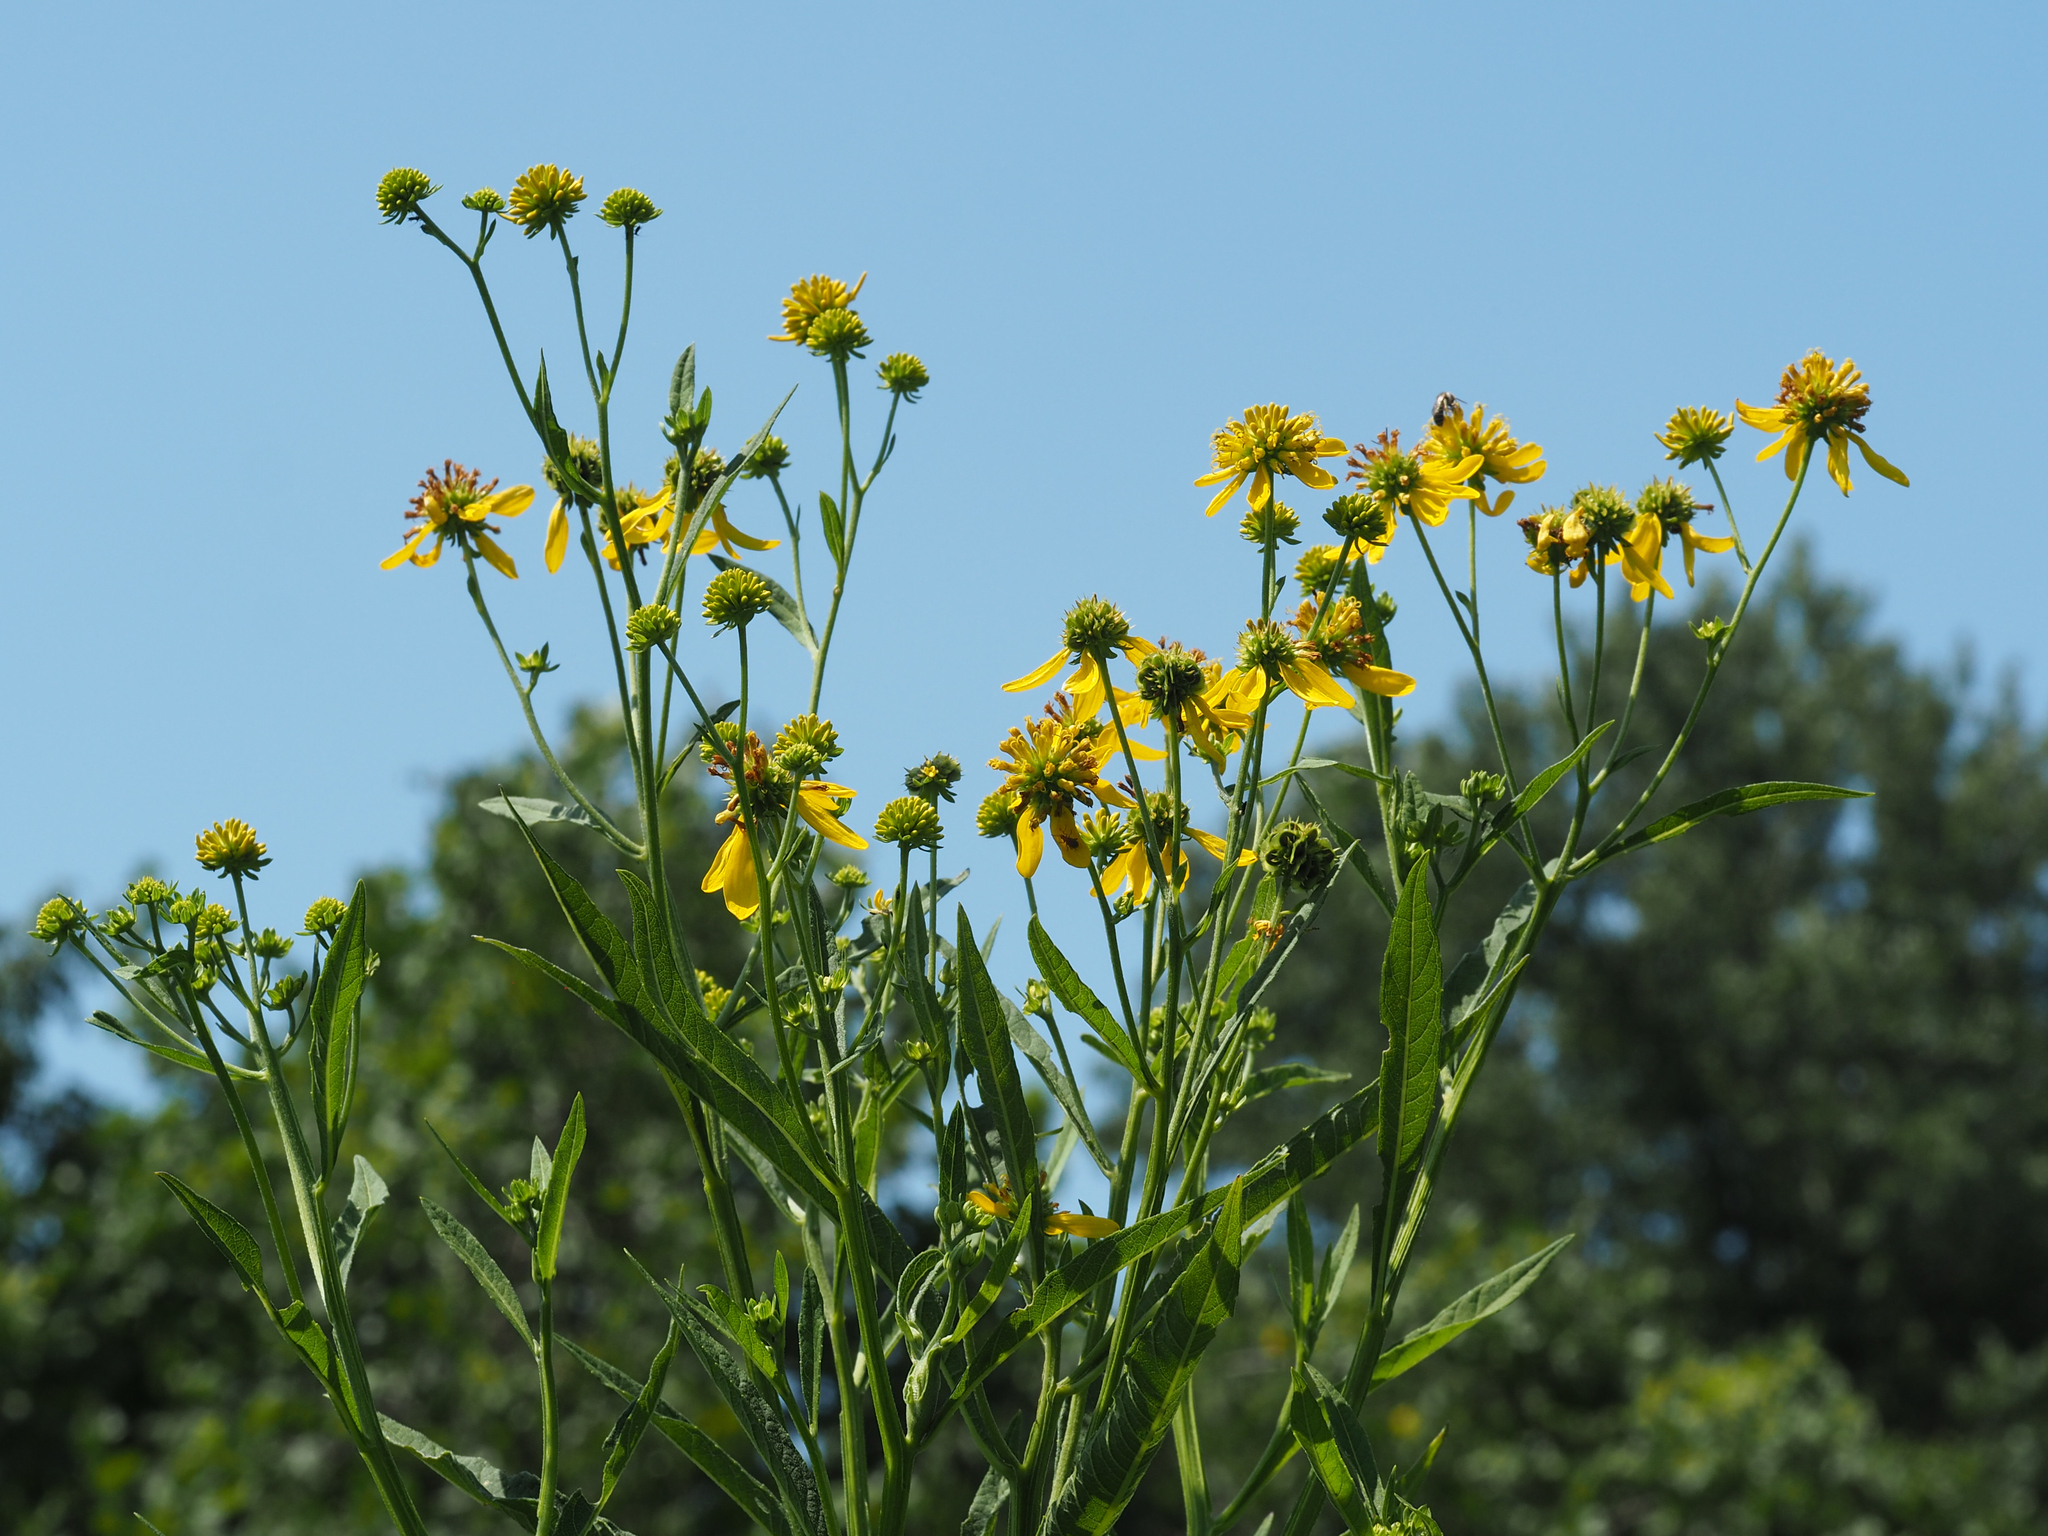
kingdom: Plantae
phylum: Tracheophyta
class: Magnoliopsida
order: Asterales
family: Asteraceae
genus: Verbesina
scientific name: Verbesina alternifolia
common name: Wingstem
